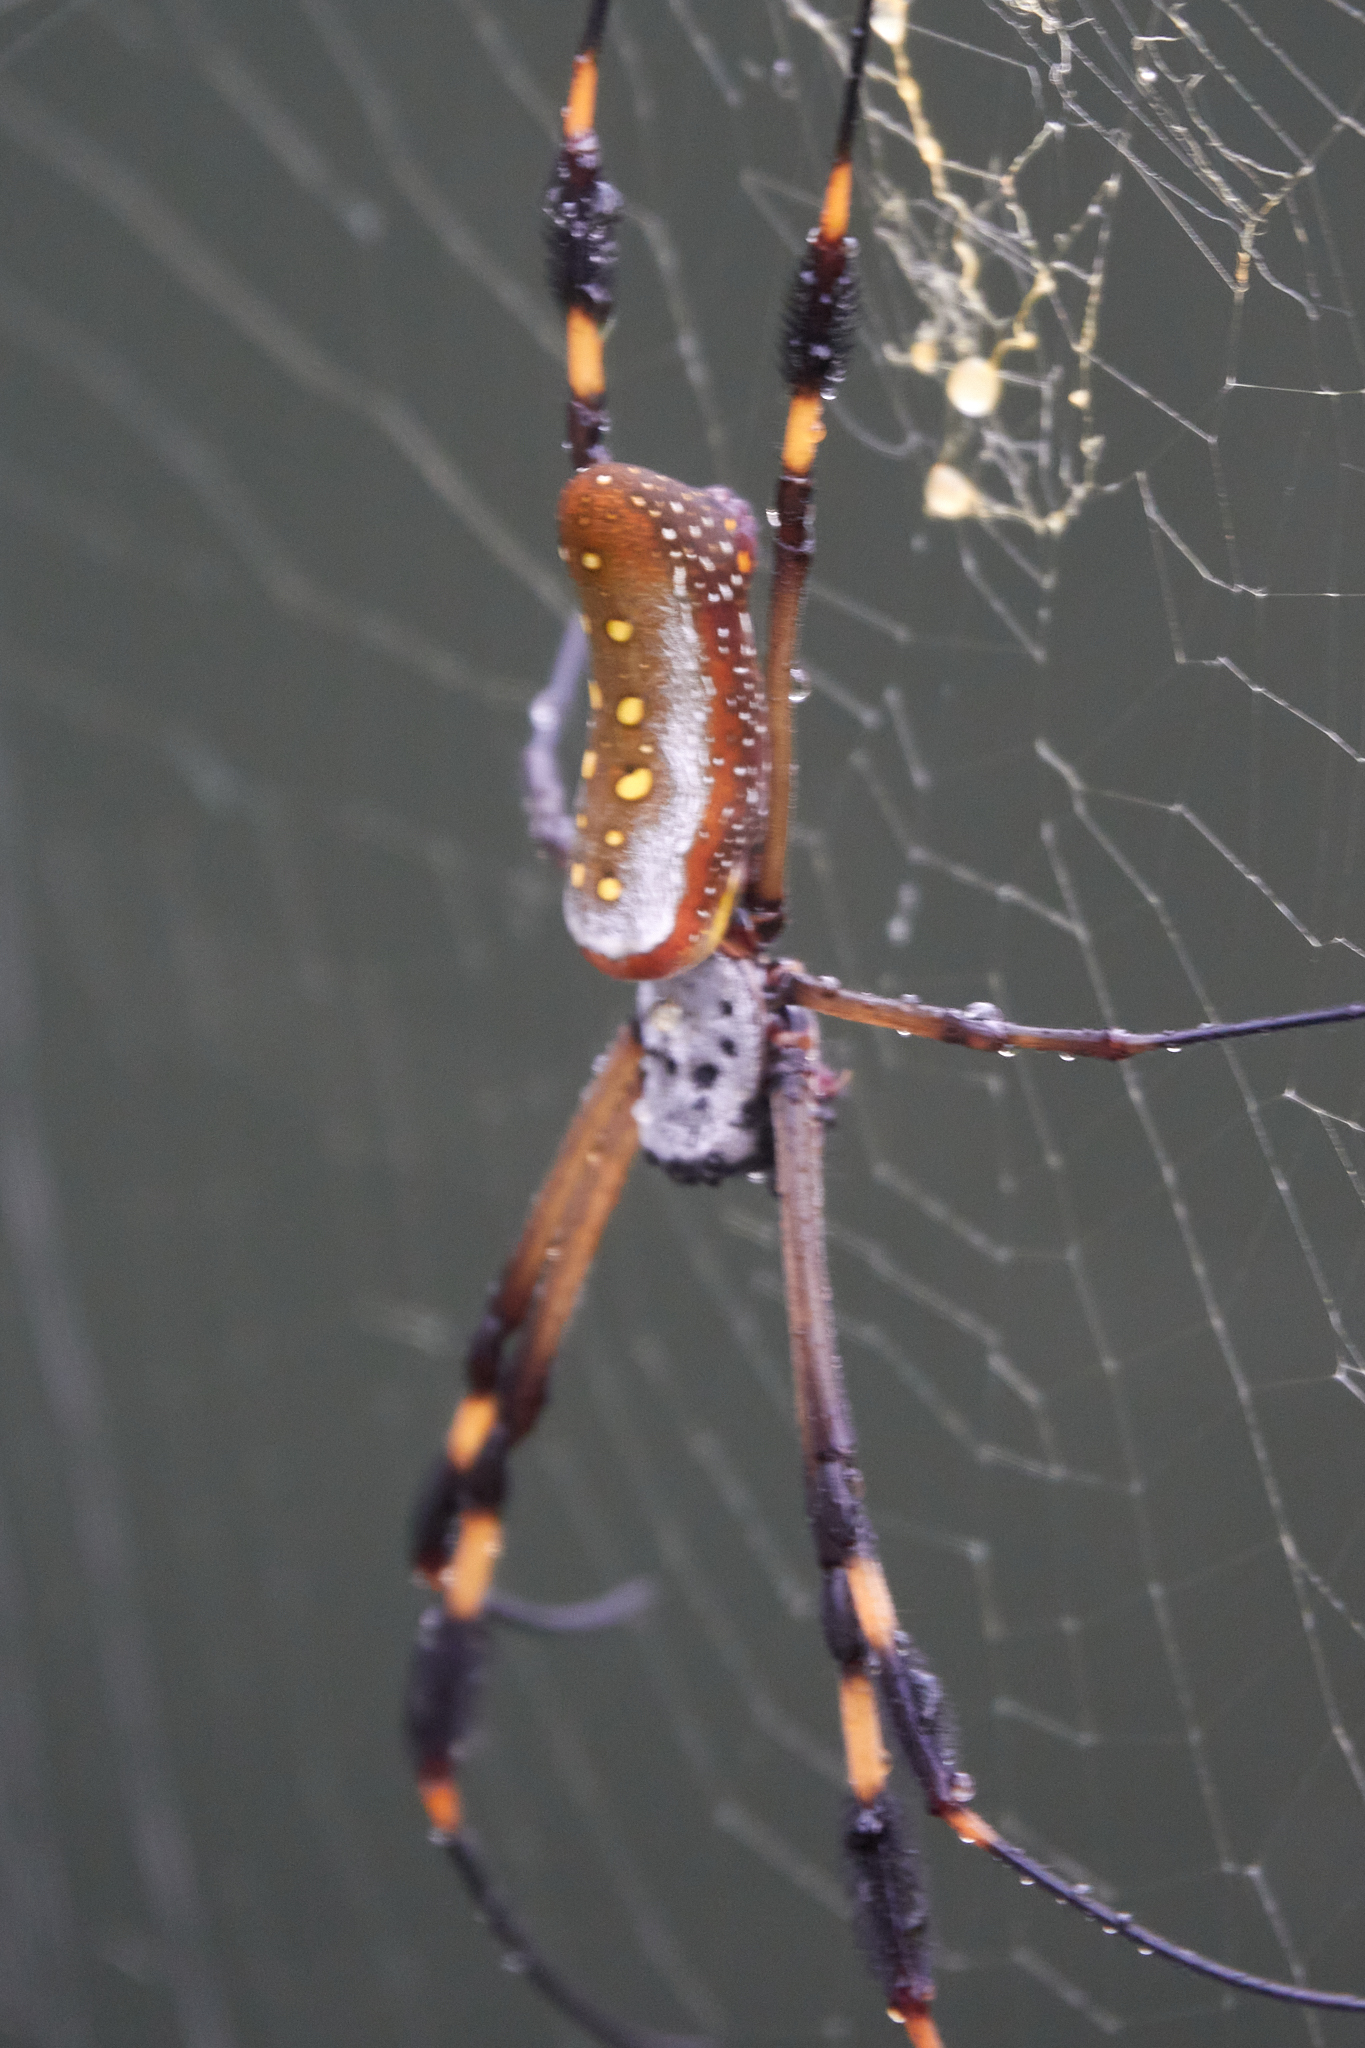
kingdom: Animalia
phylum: Arthropoda
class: Arachnida
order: Araneae
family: Araneidae
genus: Trichonephila
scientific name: Trichonephila clavipes
